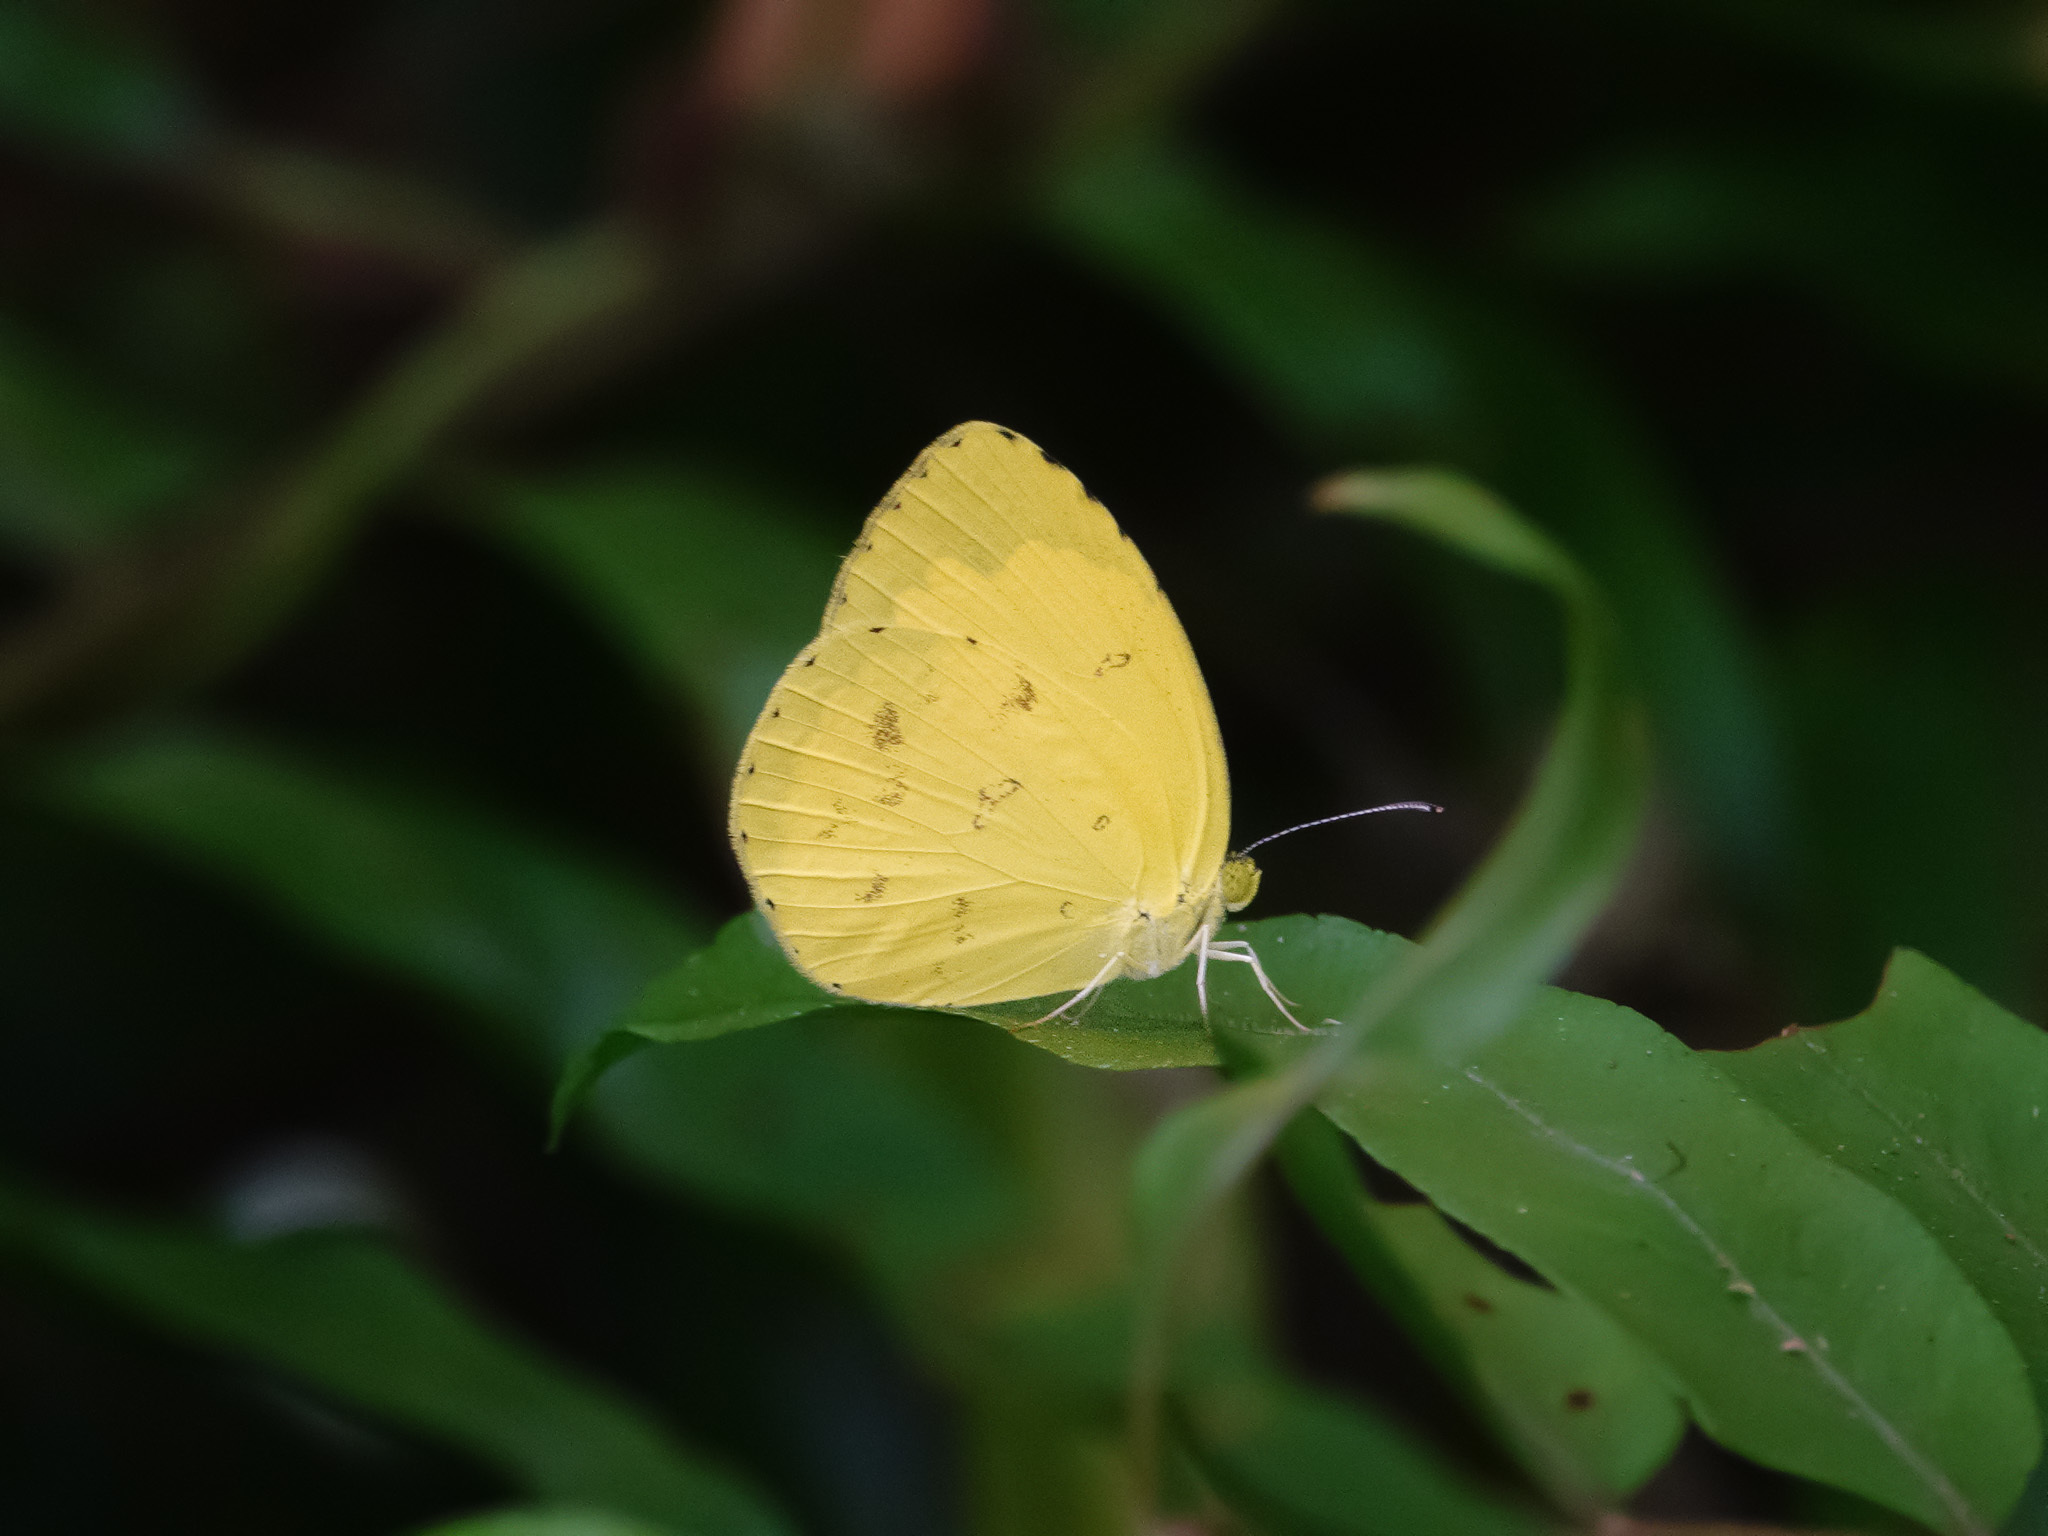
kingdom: Animalia
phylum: Arthropoda
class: Insecta
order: Lepidoptera
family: Pieridae
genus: Eurema
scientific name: Eurema hecabe
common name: Pale grass yellow
